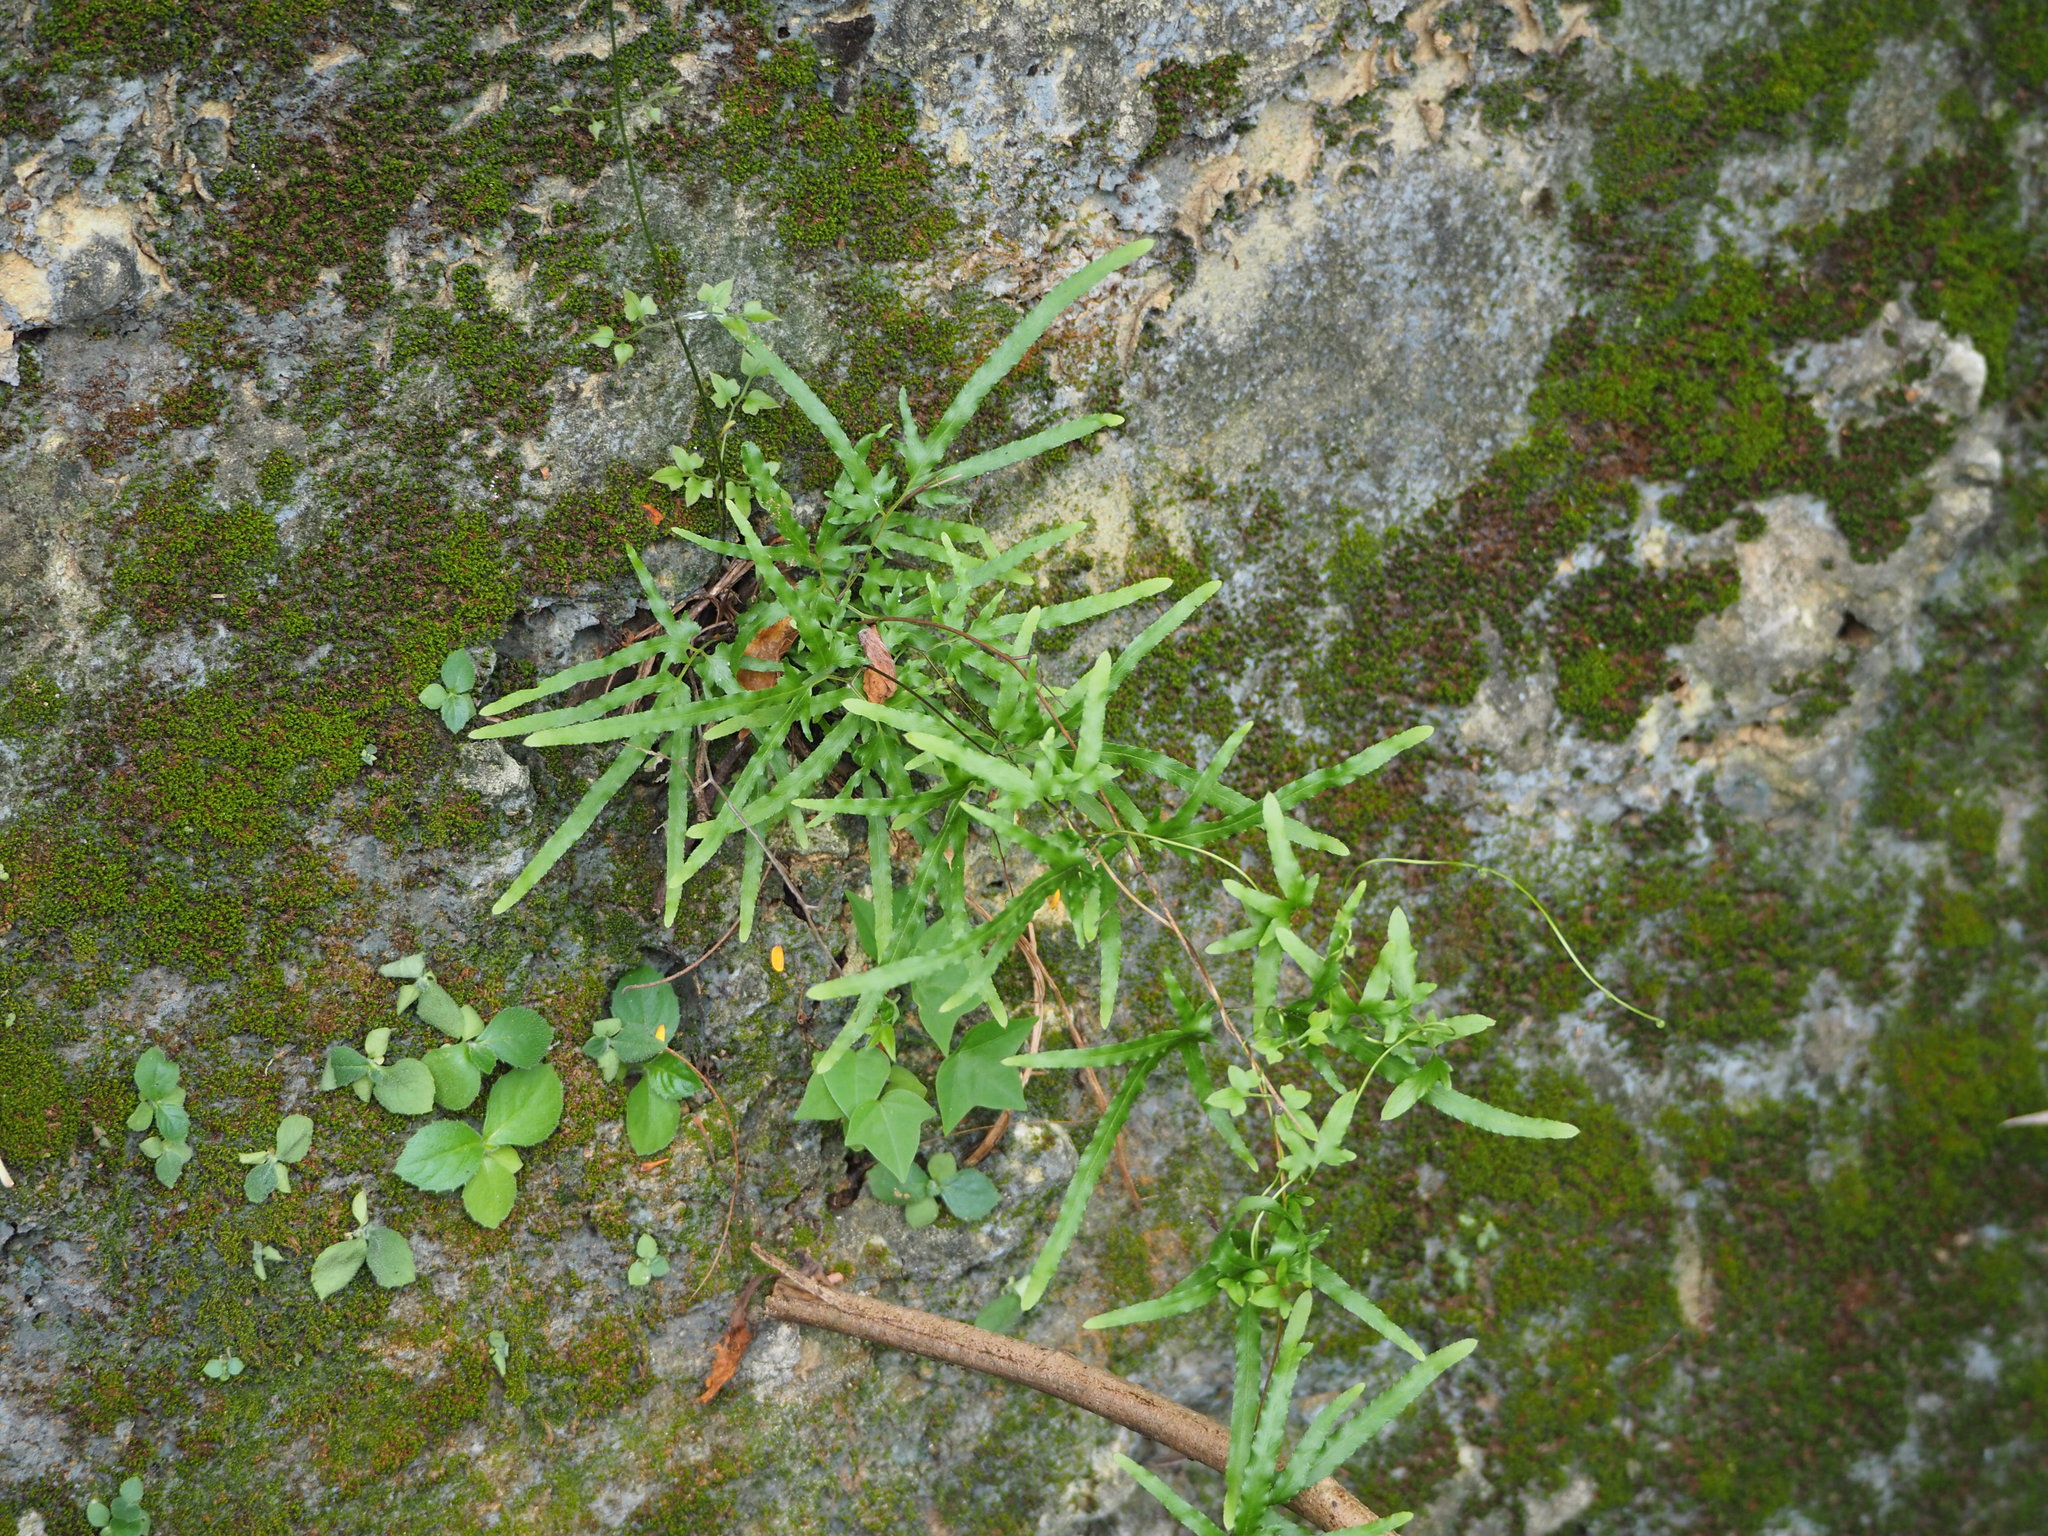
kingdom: Plantae
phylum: Tracheophyta
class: Polypodiopsida
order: Schizaeales
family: Lygodiaceae
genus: Lygodium
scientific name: Lygodium japonicum
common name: Japanese climbing fern
